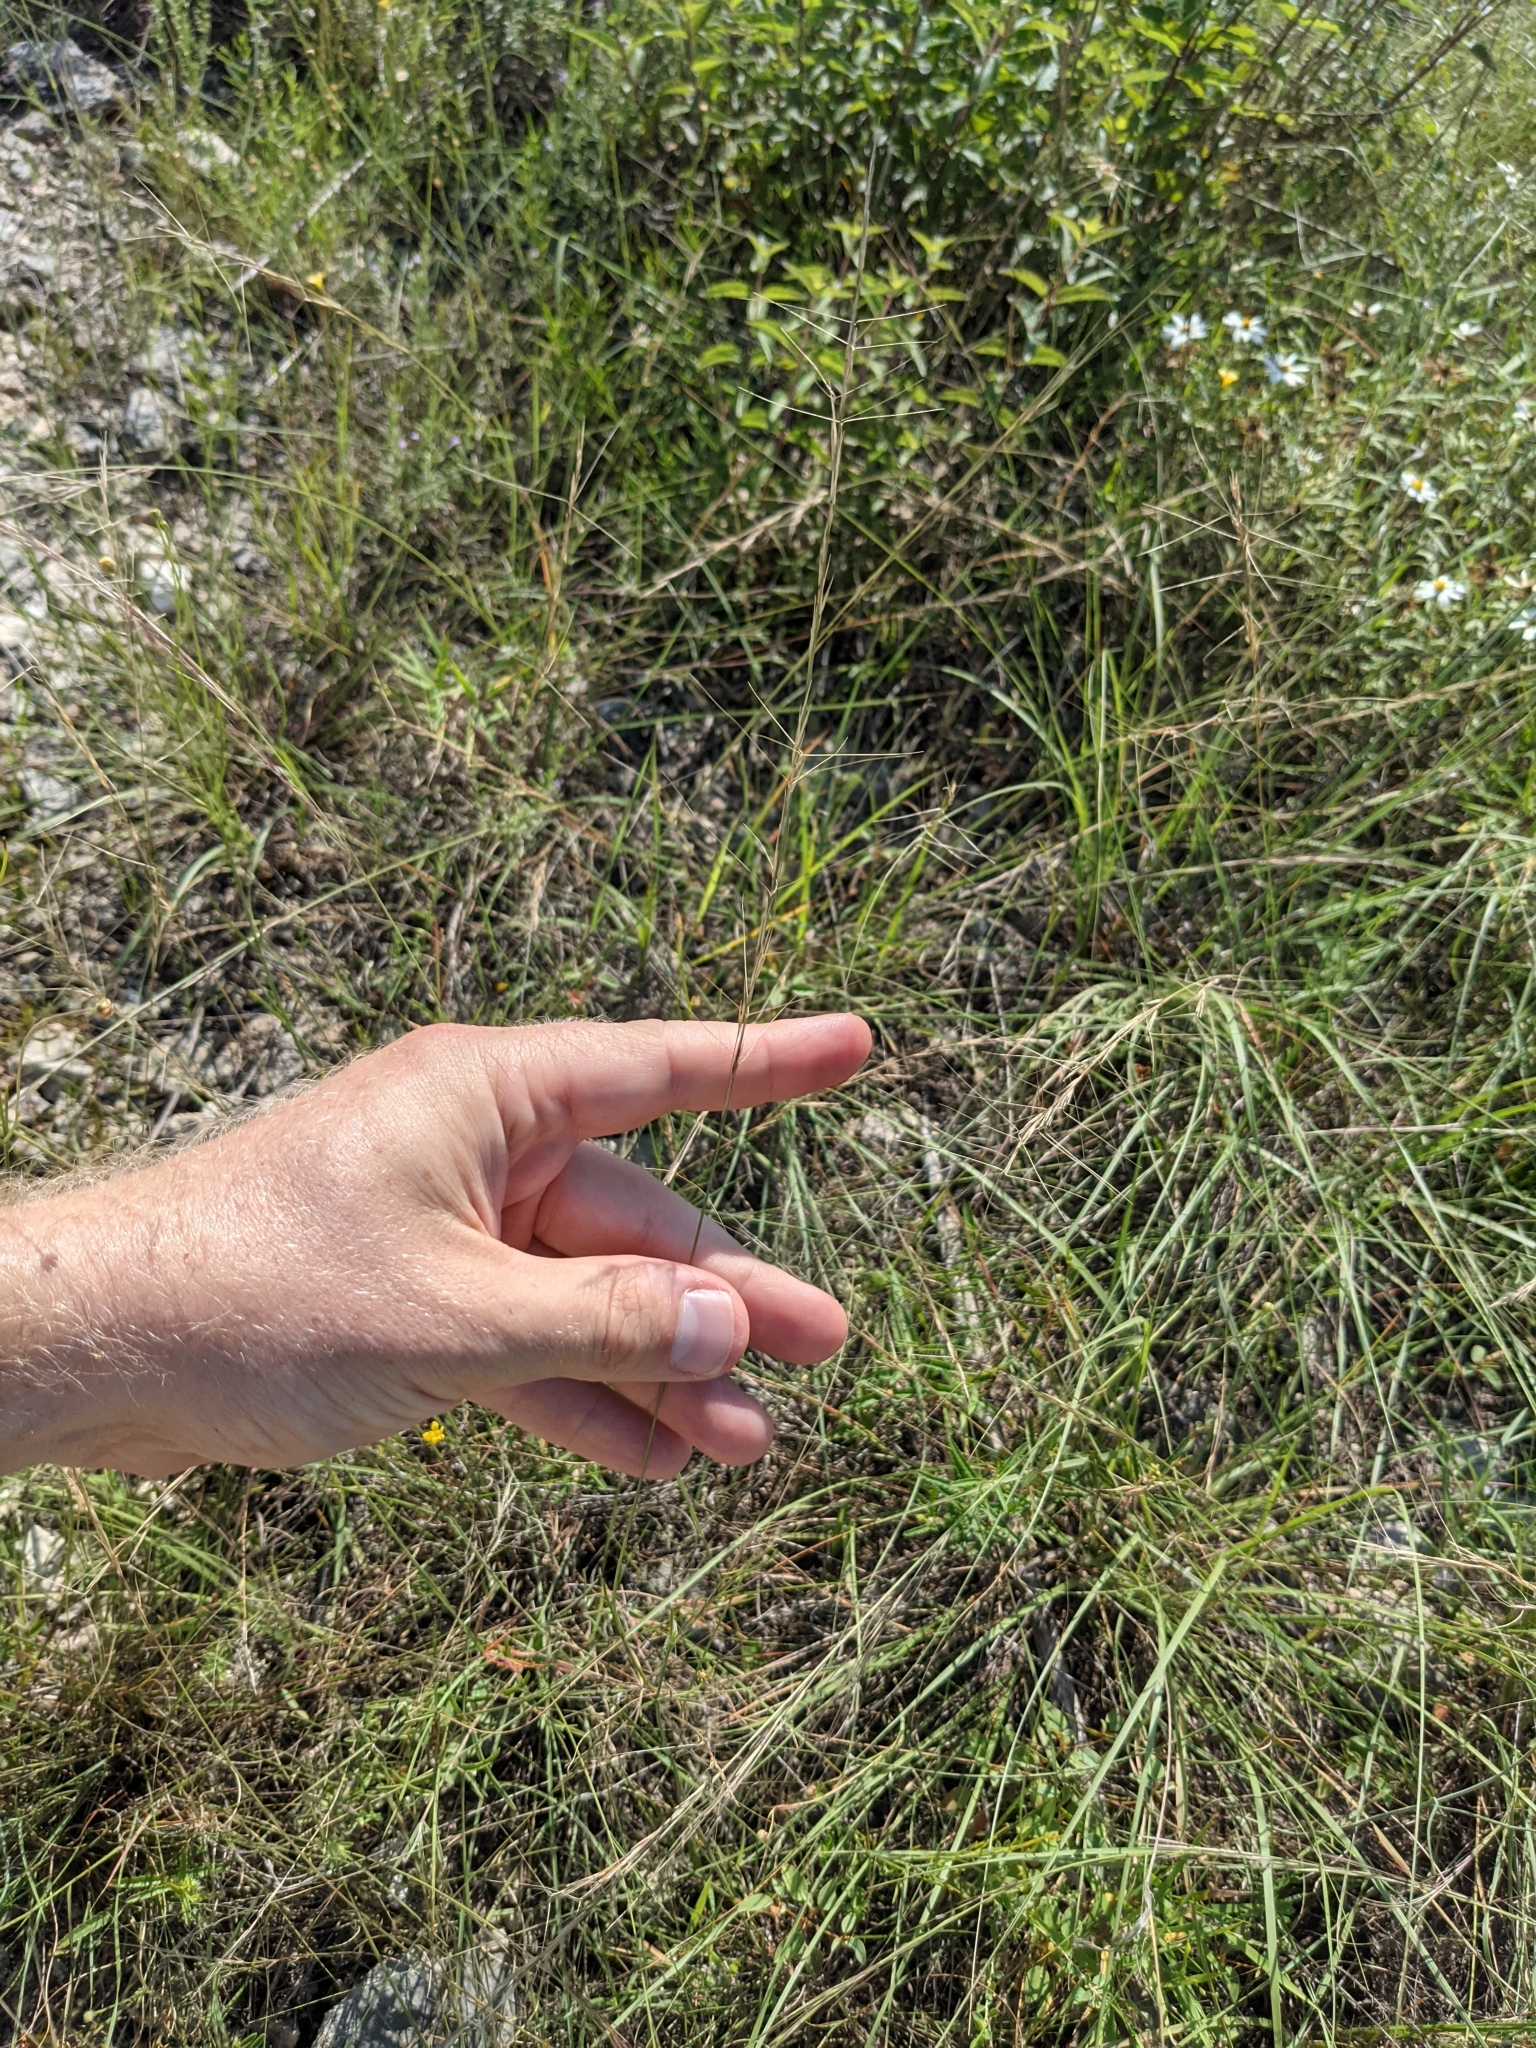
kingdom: Plantae
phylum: Tracheophyta
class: Liliopsida
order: Poales
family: Poaceae
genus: Aristida
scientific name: Aristida purpurea
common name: Purple threeawn
